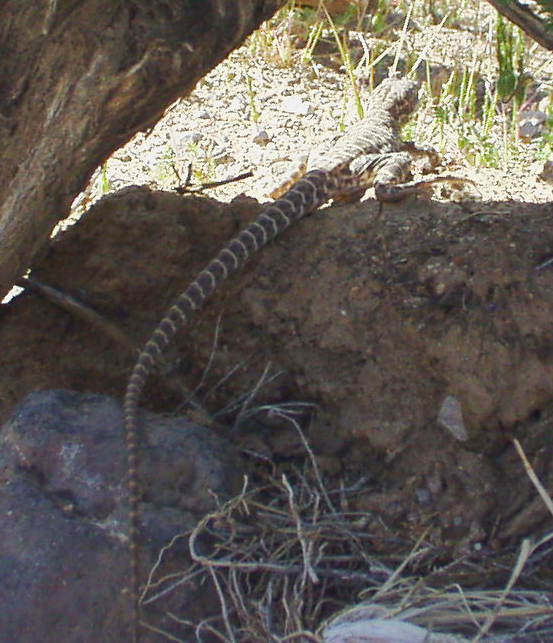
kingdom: Animalia
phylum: Chordata
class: Squamata
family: Crotaphytidae
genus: Gambelia
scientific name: Gambelia wislizenii
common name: Longnose leopard lizard
